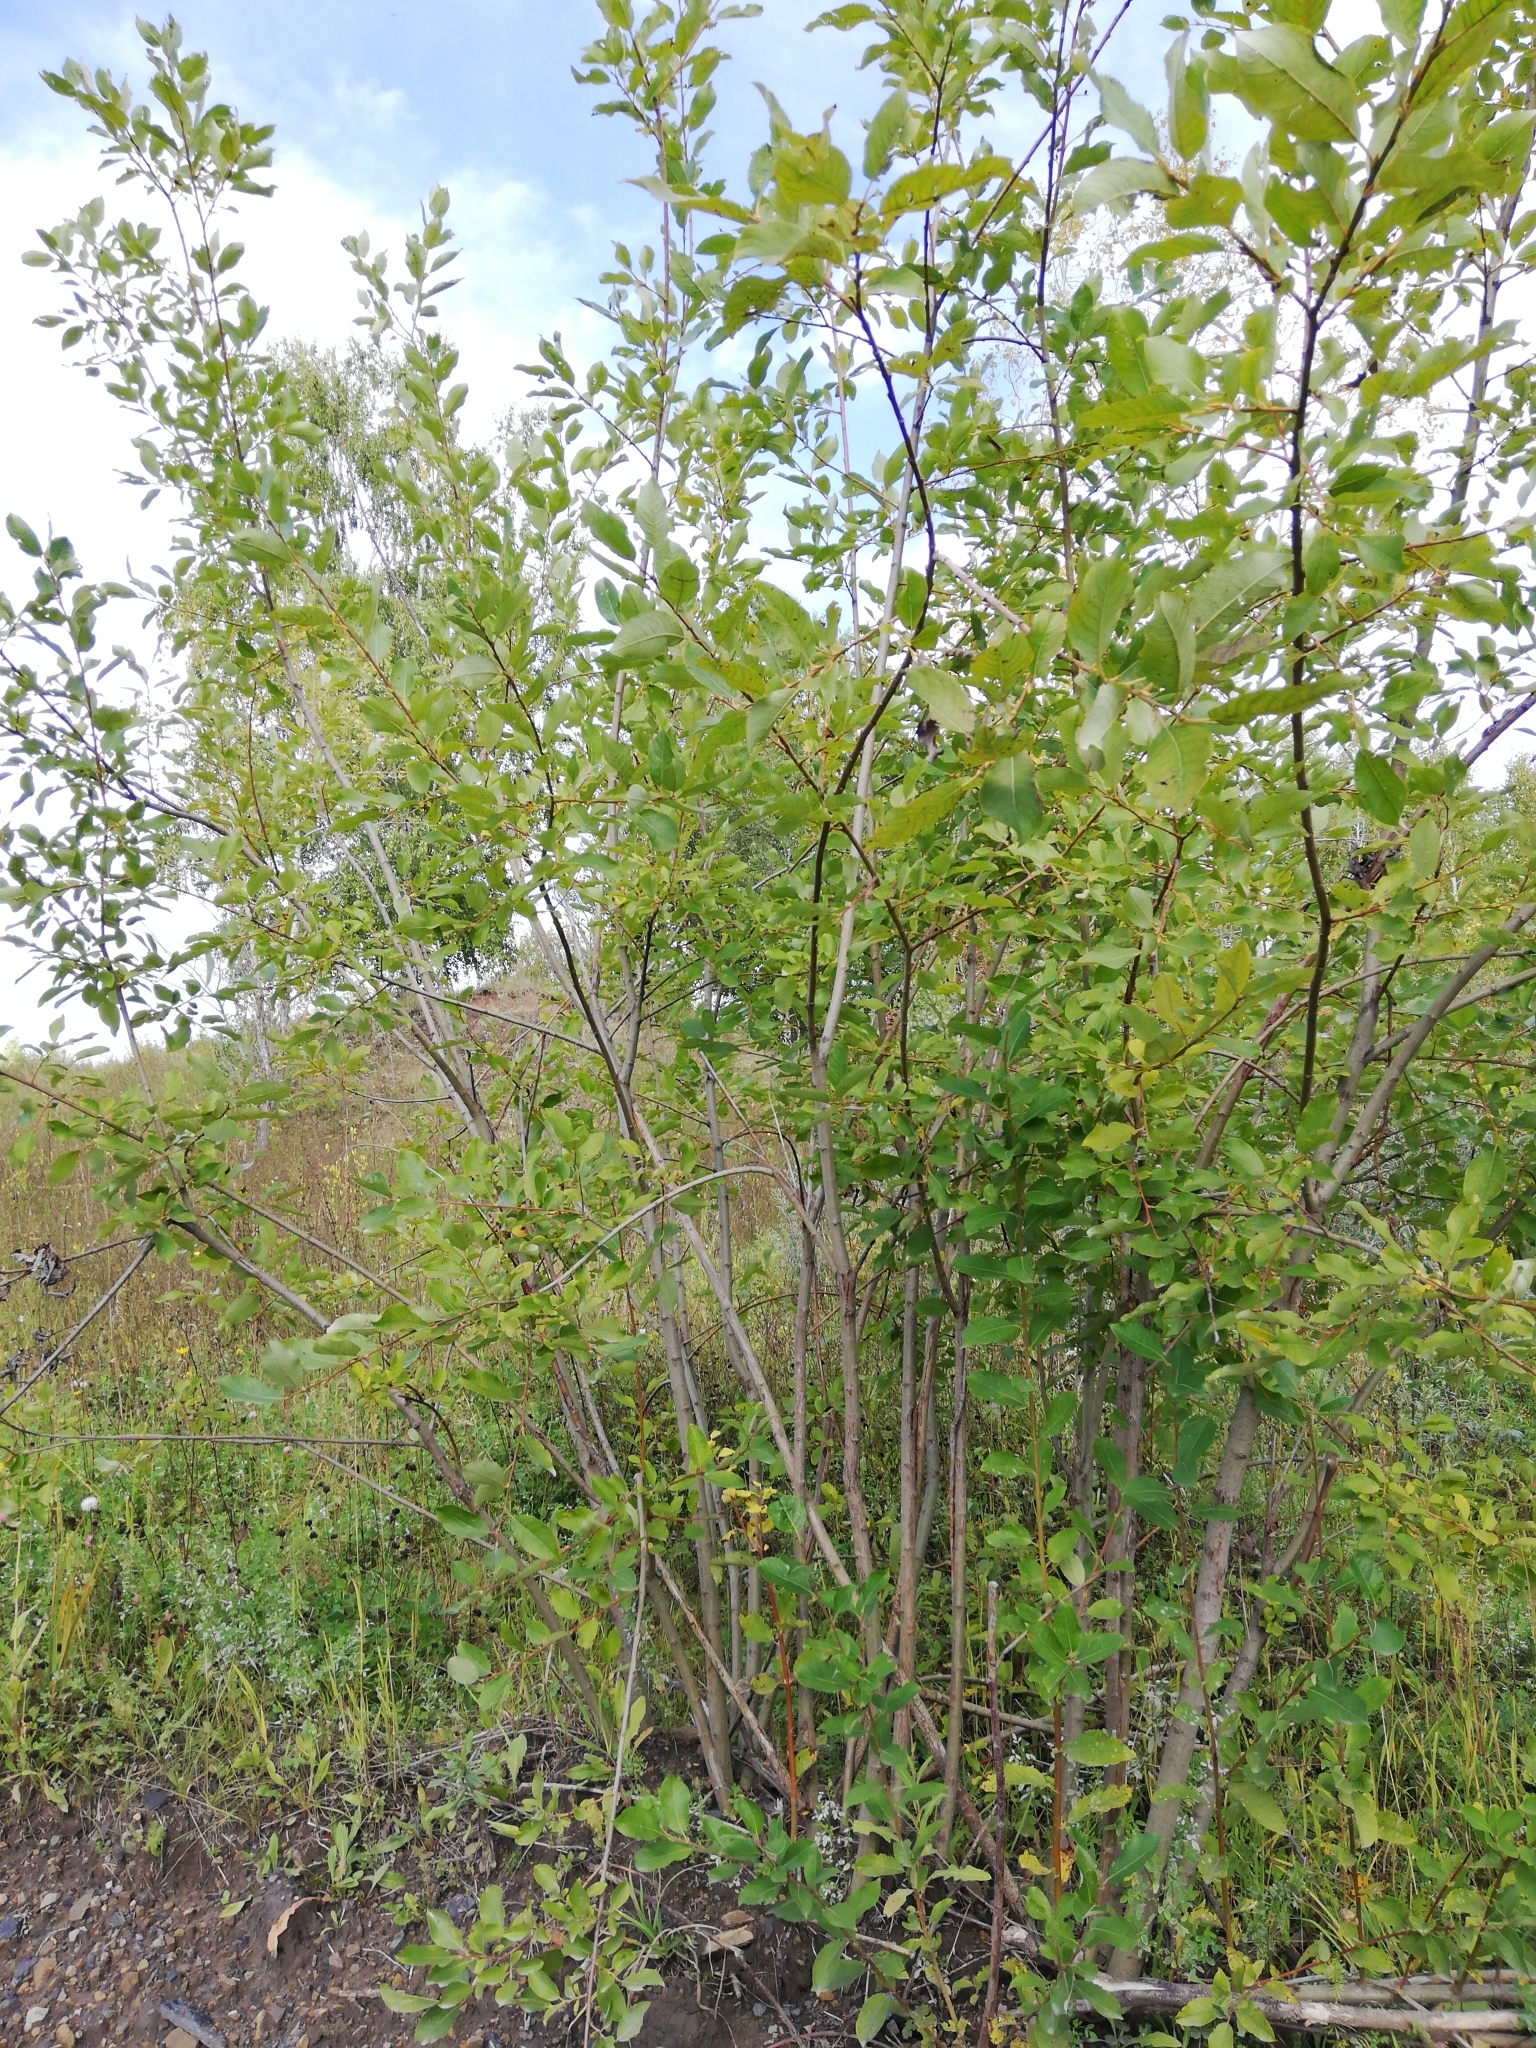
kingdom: Plantae
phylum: Tracheophyta
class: Magnoliopsida
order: Malpighiales
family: Salicaceae
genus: Salix
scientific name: Salix caprea
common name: Goat willow
